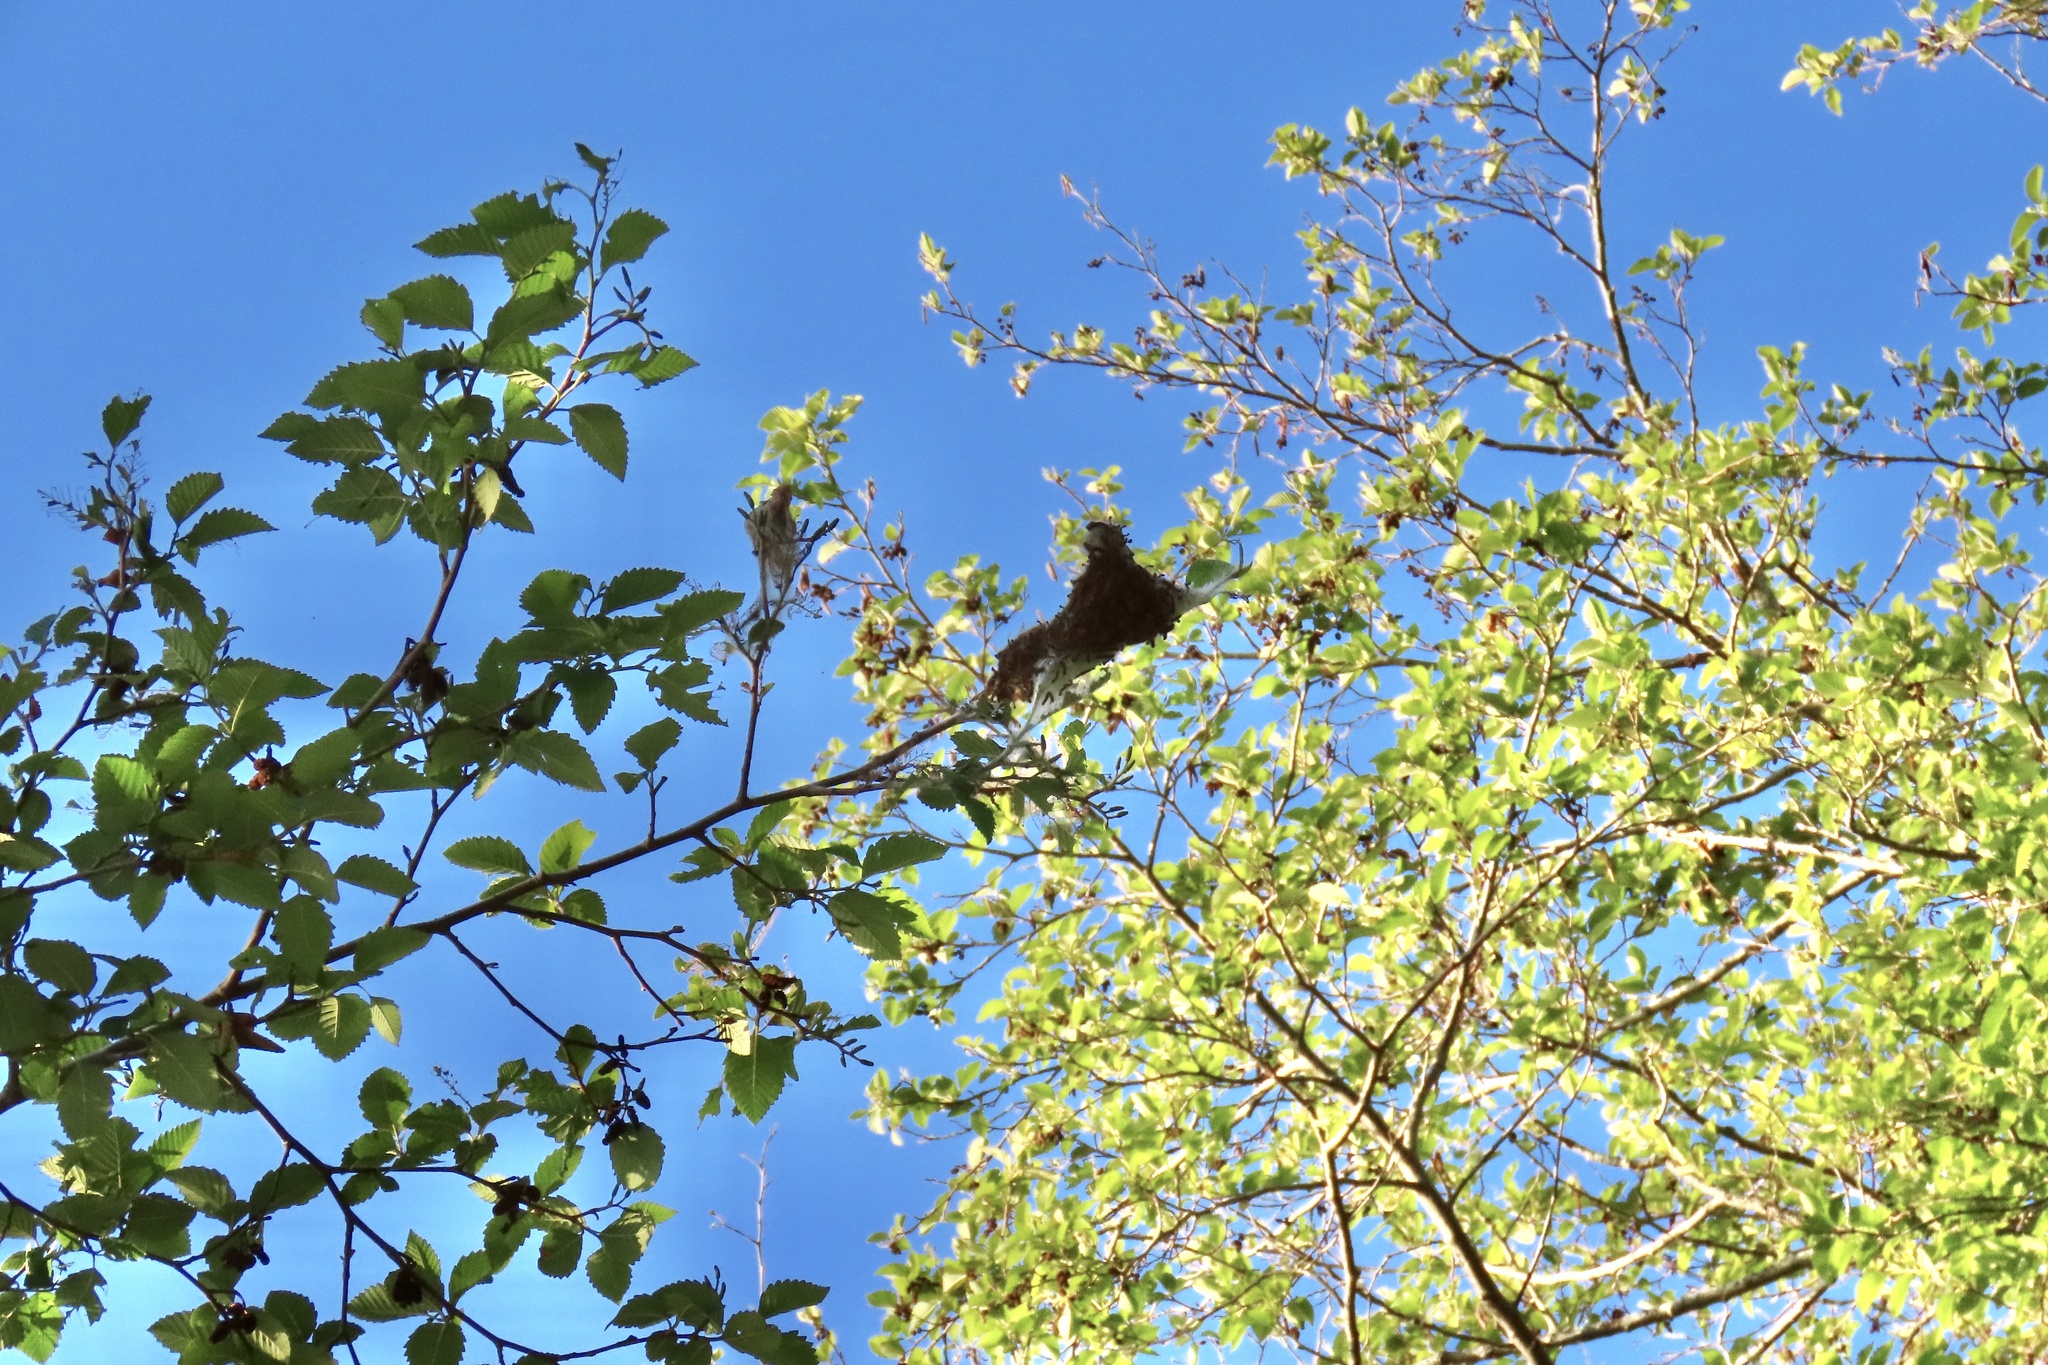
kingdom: Animalia
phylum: Arthropoda
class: Insecta
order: Lepidoptera
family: Lasiocampidae
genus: Malacosoma
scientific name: Malacosoma californica
